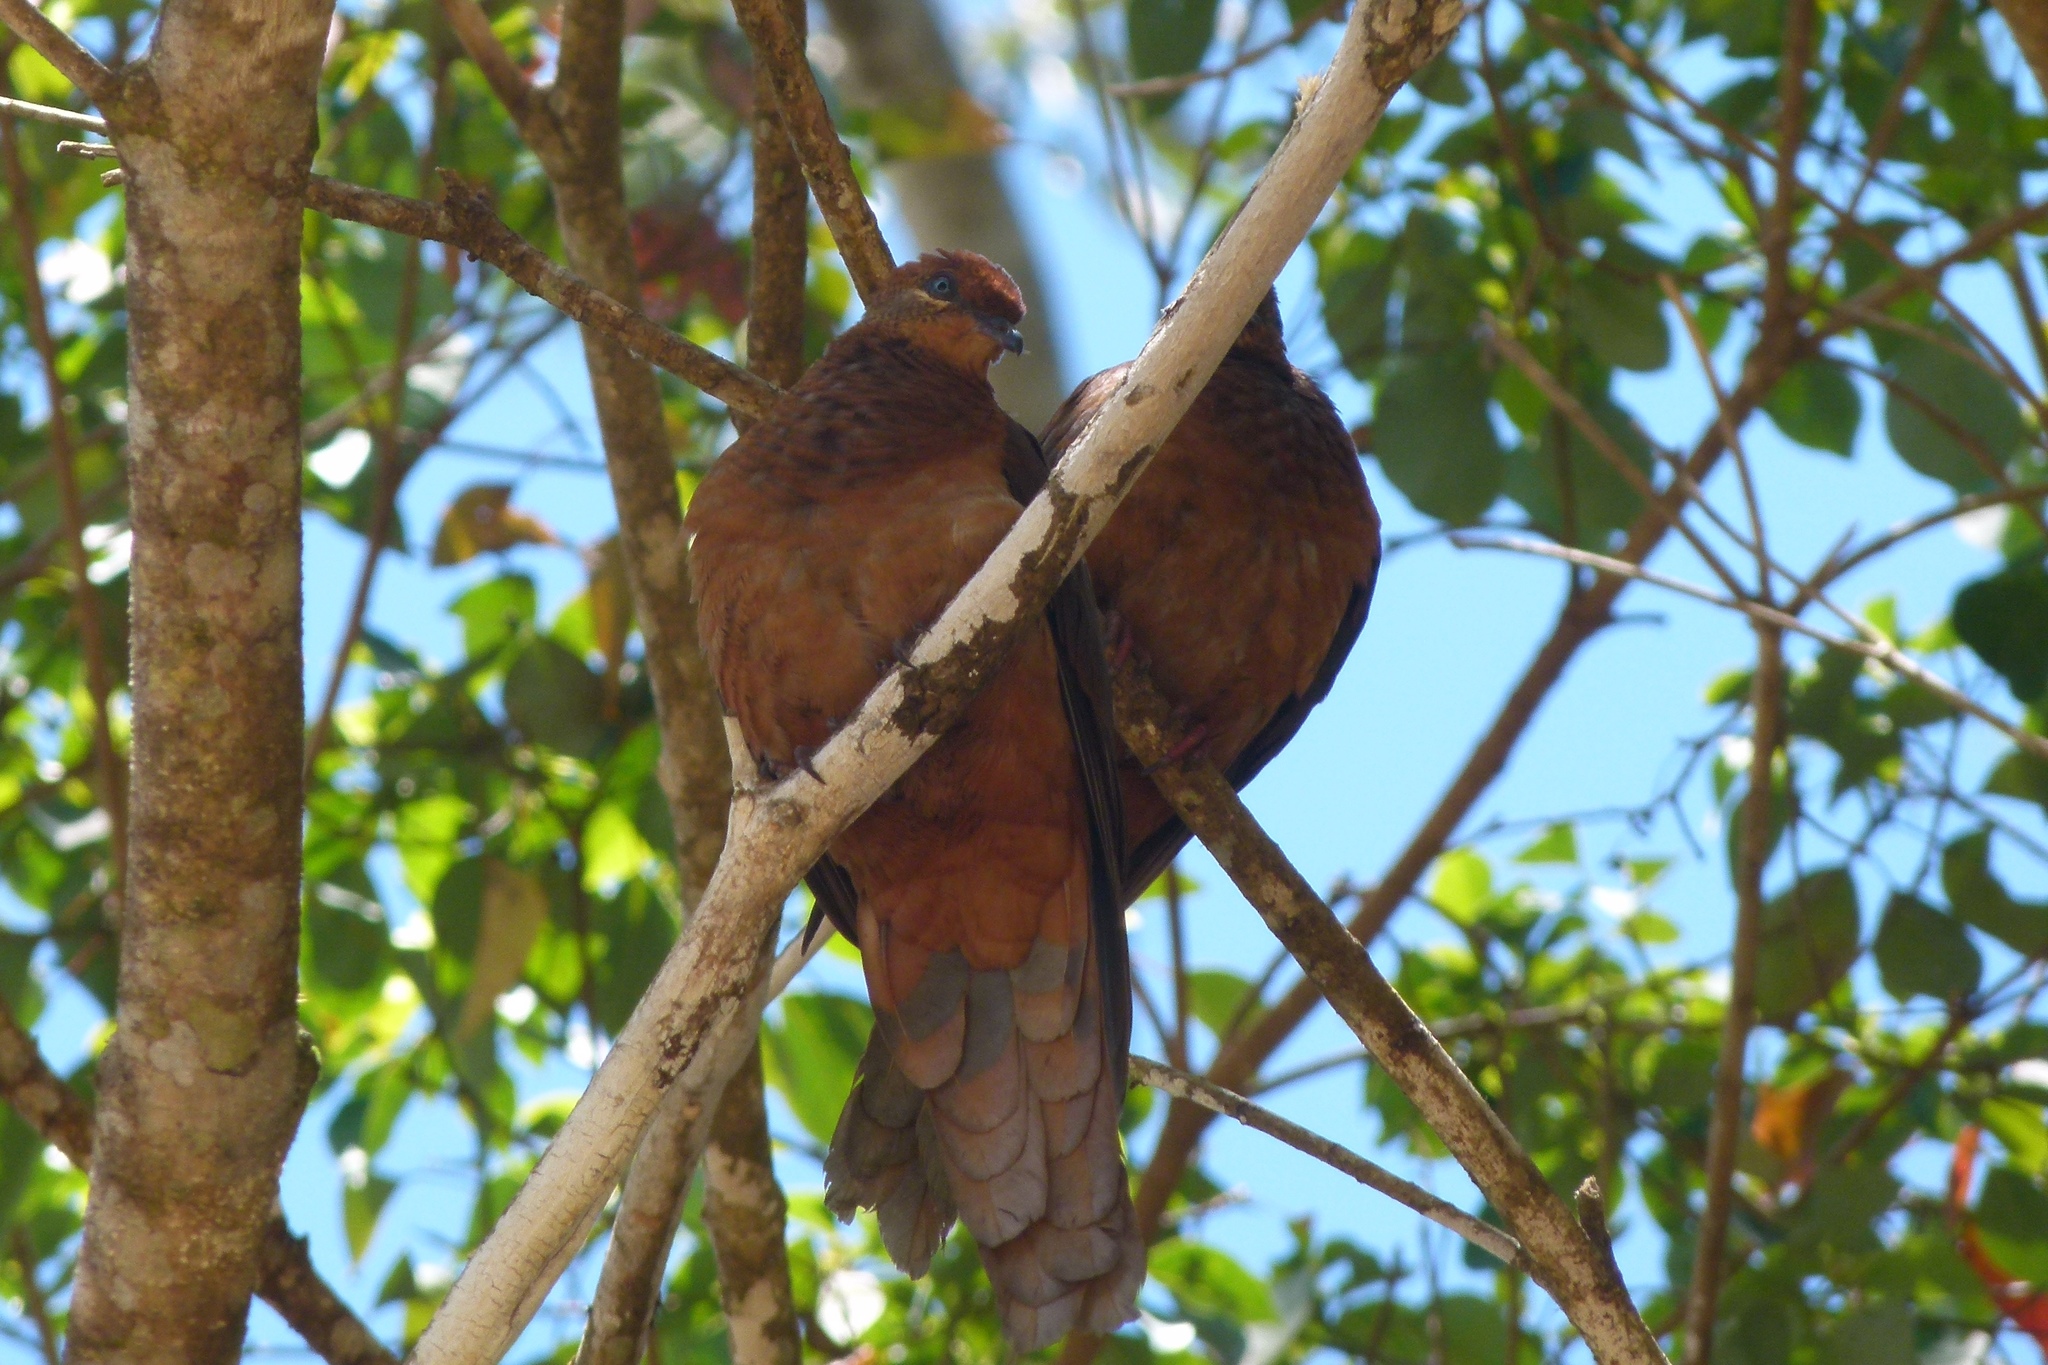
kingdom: Animalia
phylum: Chordata
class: Aves
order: Columbiformes
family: Columbidae
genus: Macropygia
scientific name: Macropygia phasianella
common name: Brown cuckoo-dove
